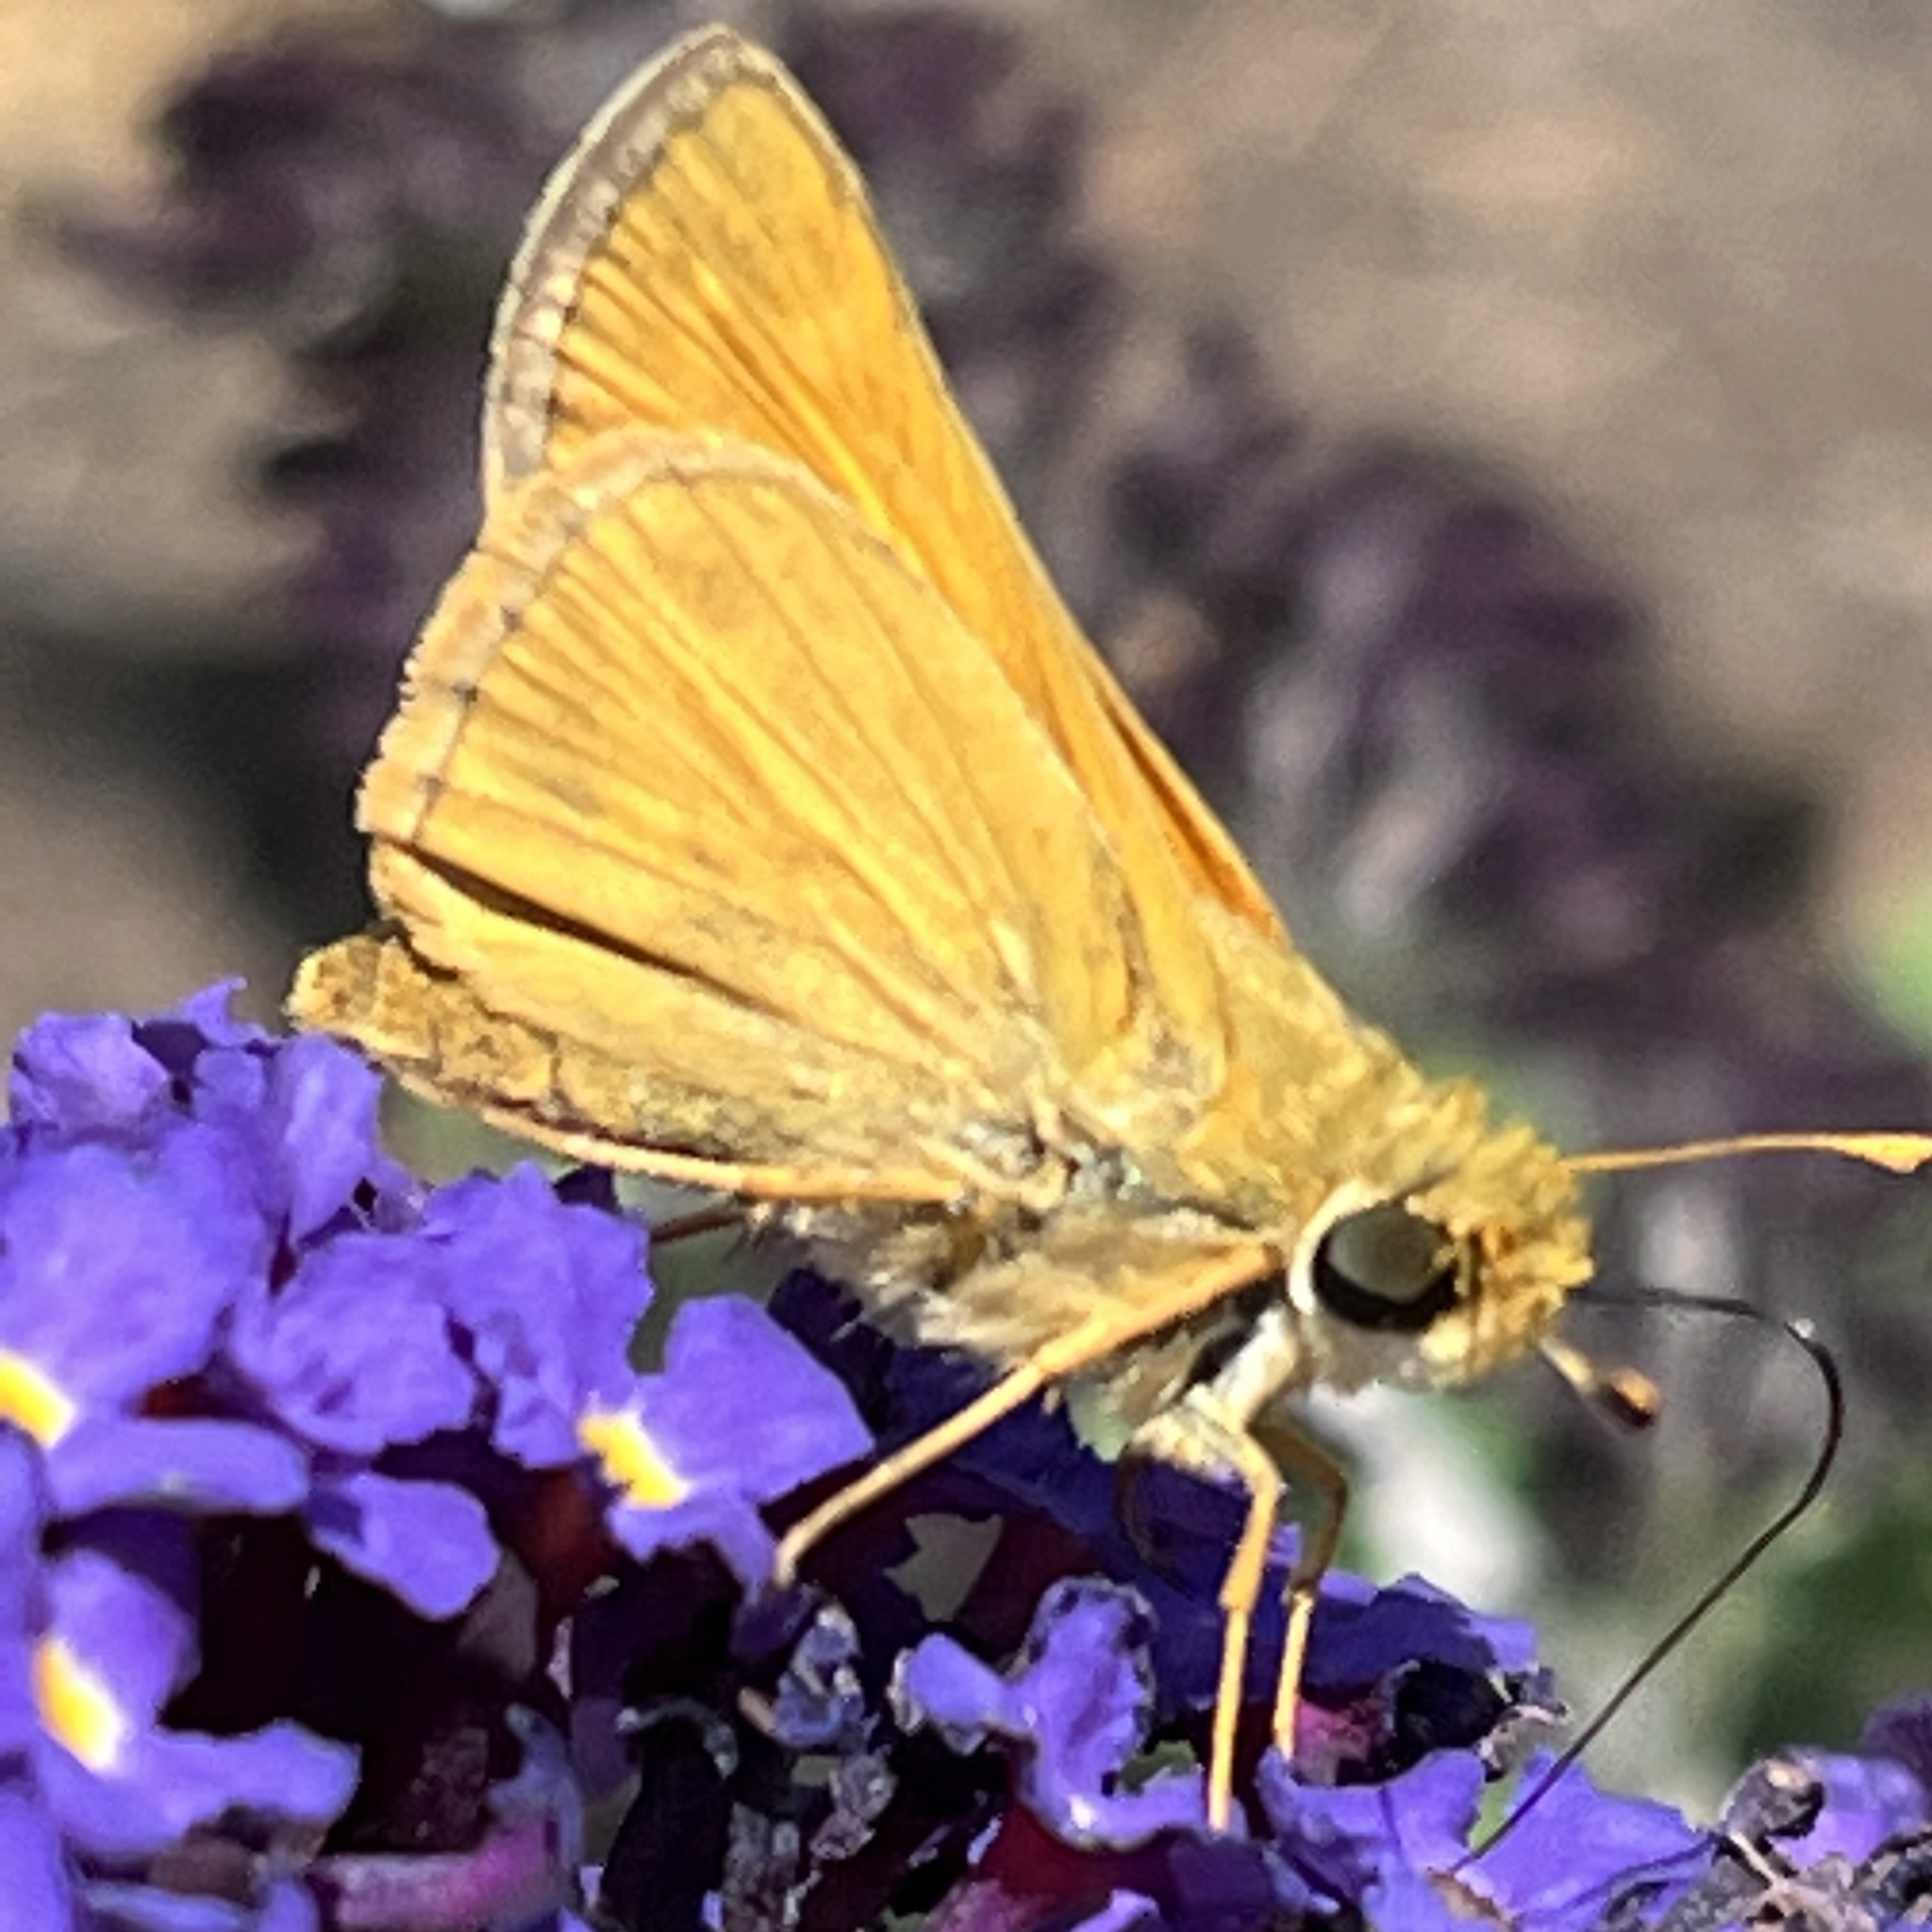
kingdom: Animalia
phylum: Arthropoda
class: Insecta
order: Lepidoptera
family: Hesperiidae
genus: Atalopedes
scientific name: Atalopedes
